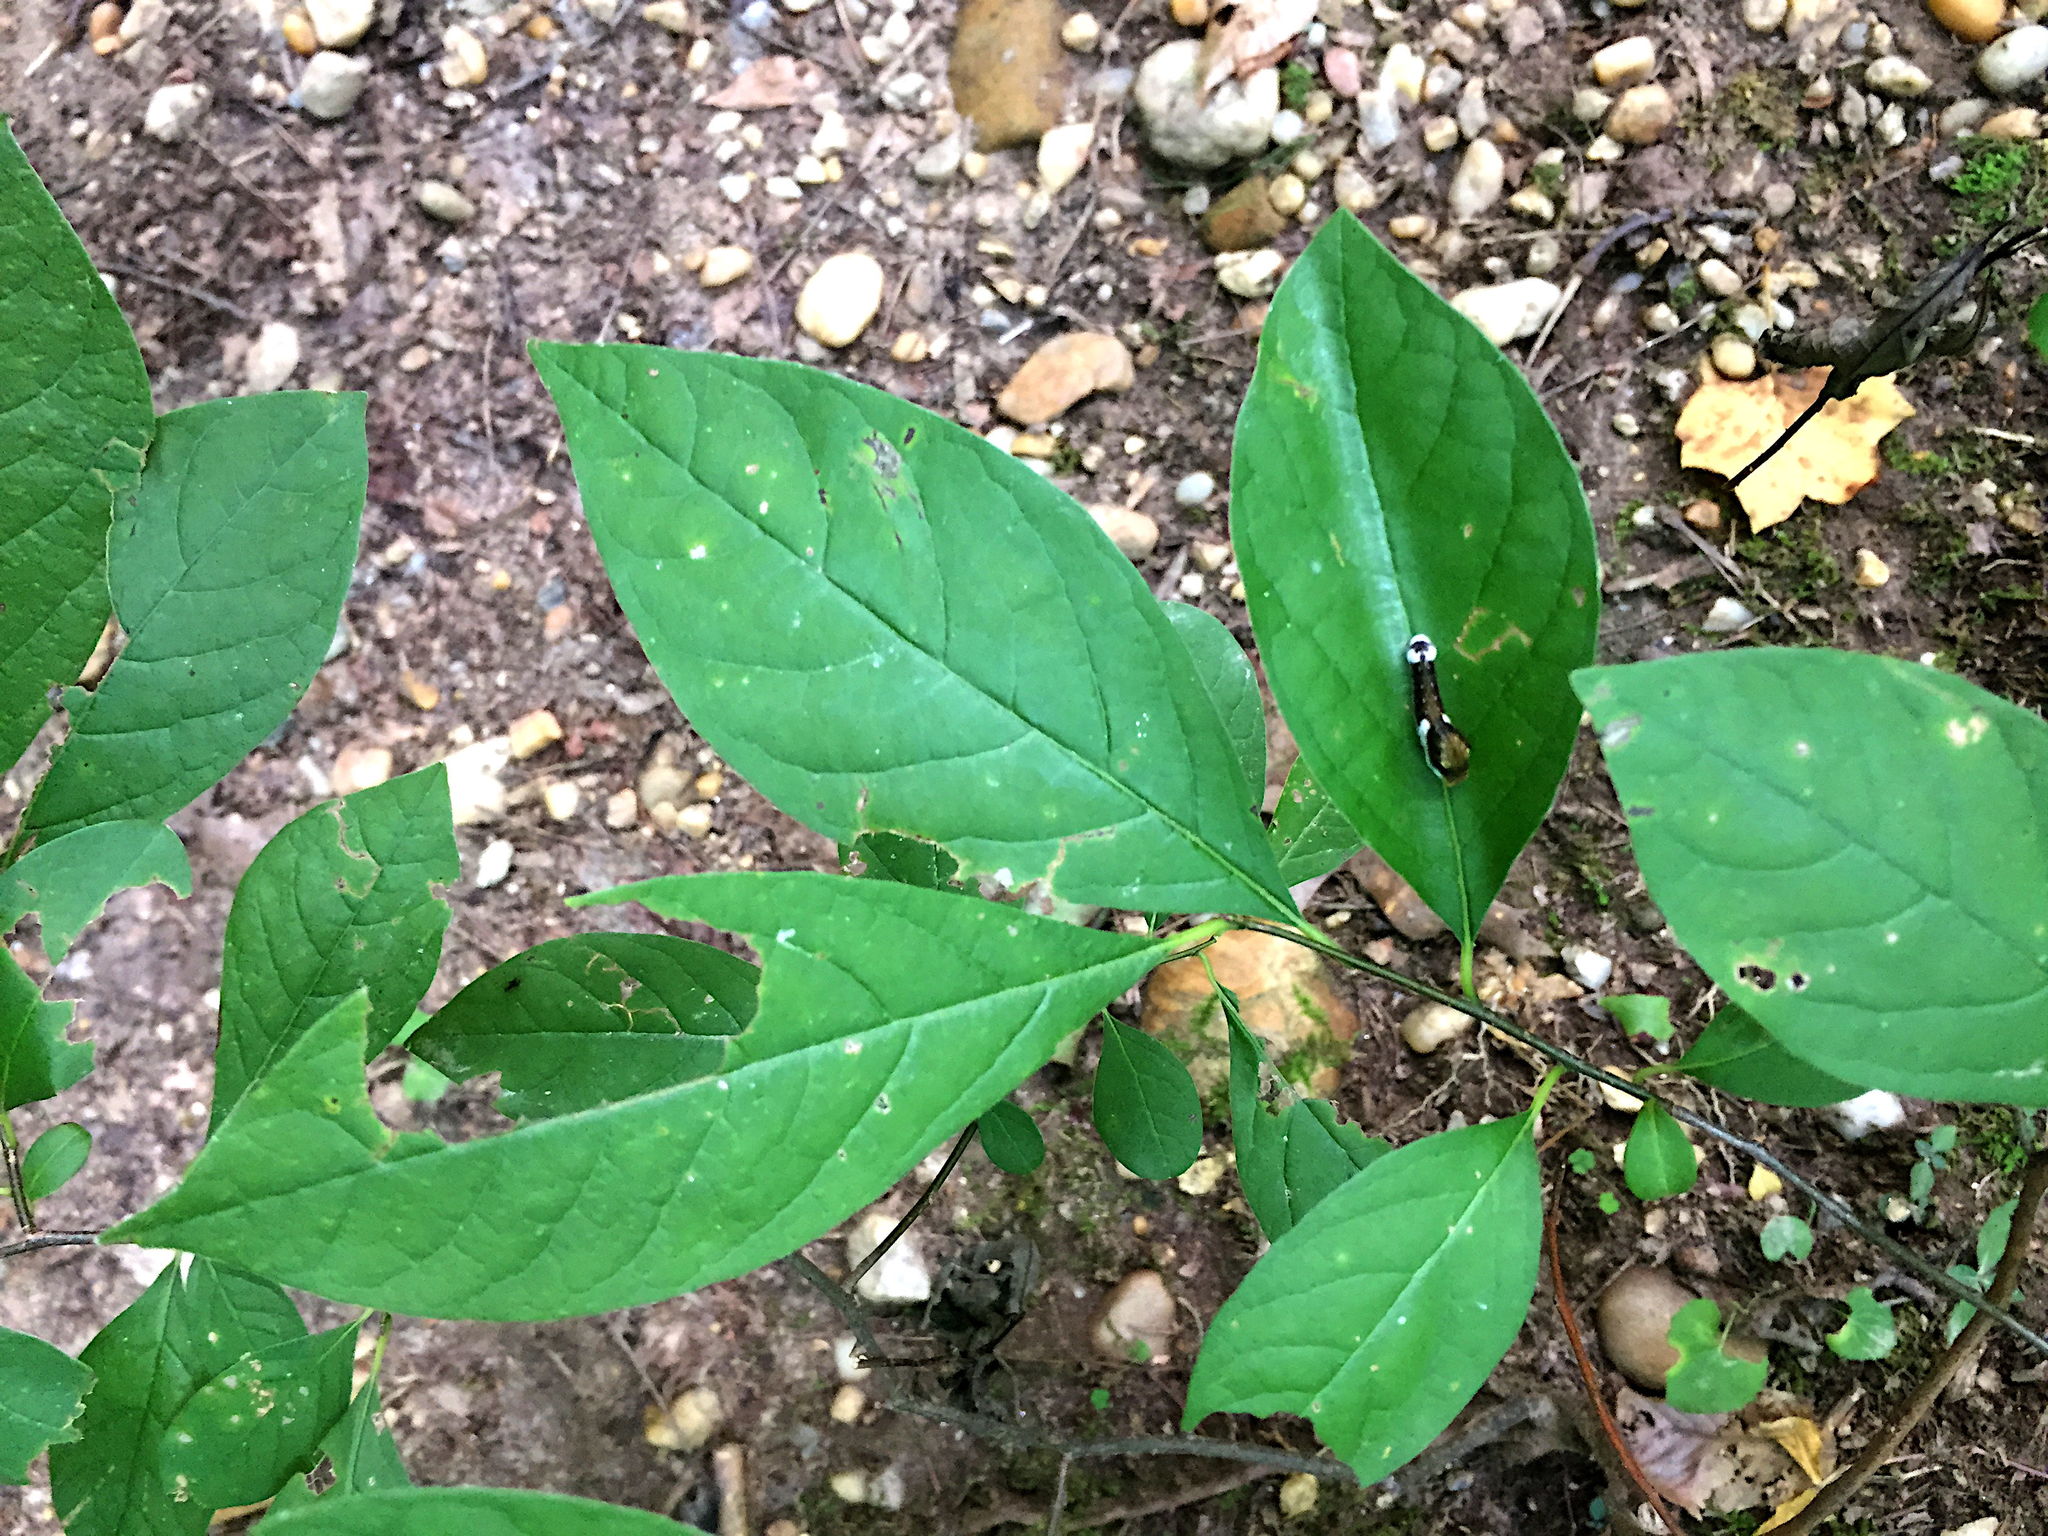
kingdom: Plantae
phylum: Tracheophyta
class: Magnoliopsida
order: Laurales
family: Lauraceae
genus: Lindera
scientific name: Lindera benzoin
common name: Spicebush
